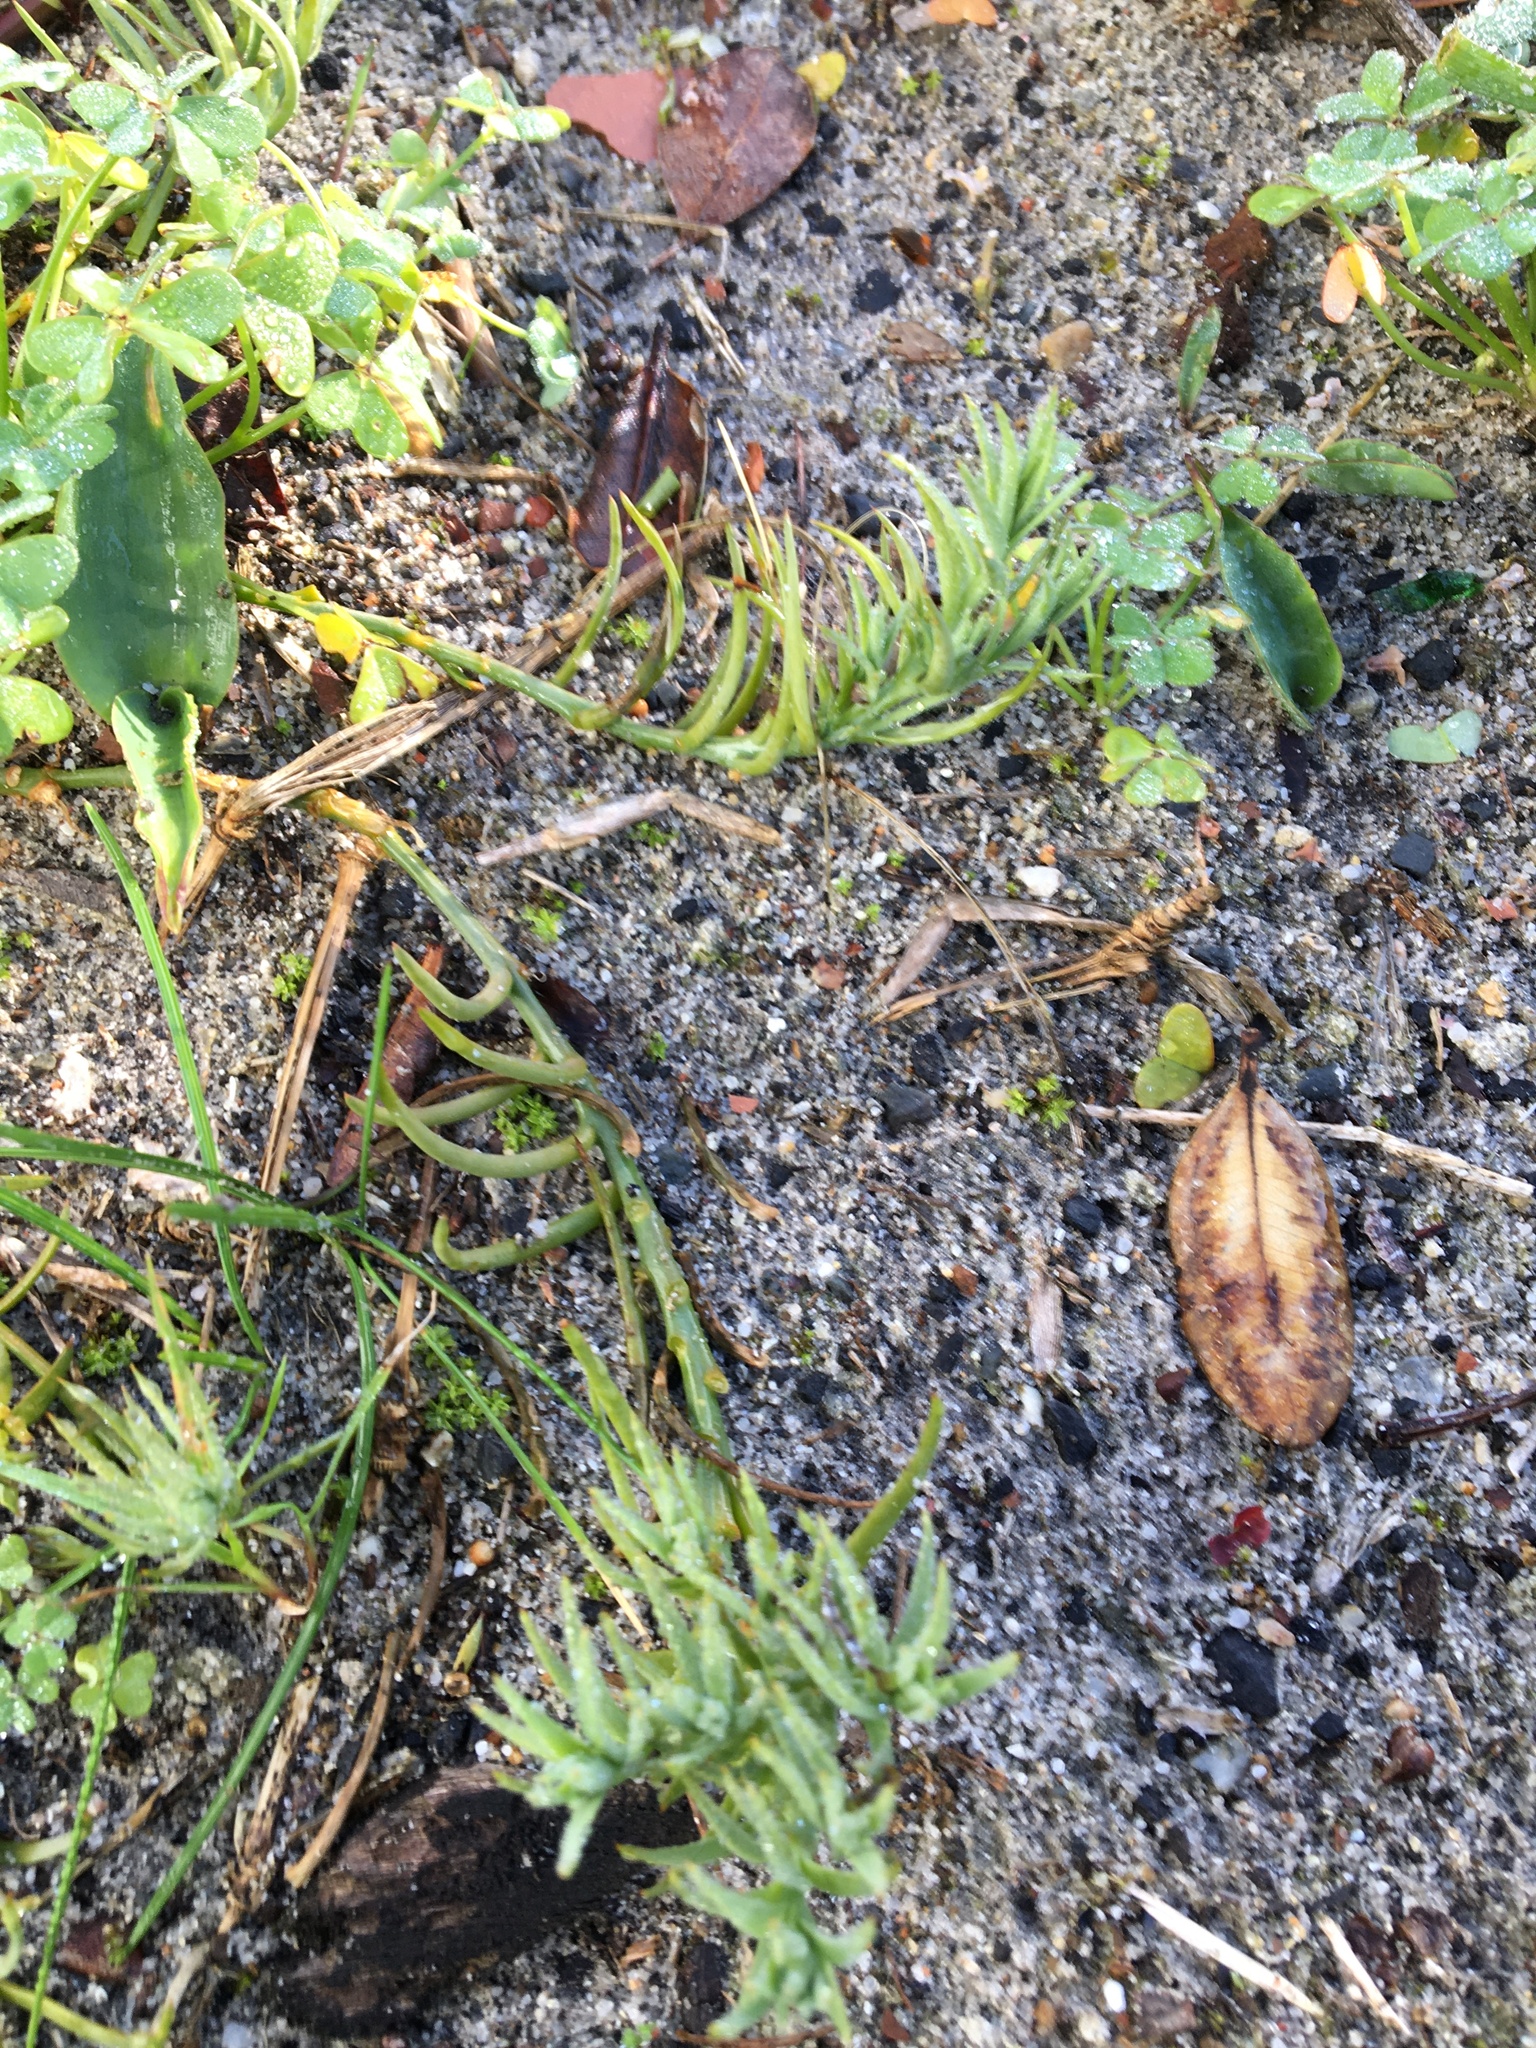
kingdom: Plantae
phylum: Tracheophyta
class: Magnoliopsida
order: Santalales
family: Thesiaceae
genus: Thesium
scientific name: Thesium ecklonianum
